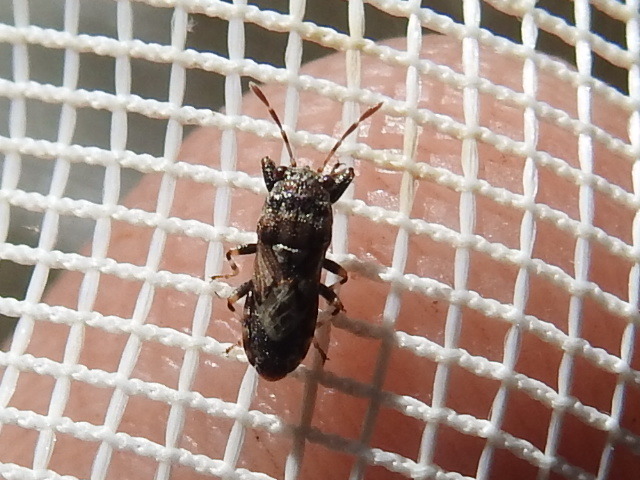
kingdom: Animalia
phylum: Arthropoda
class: Insecta
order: Hemiptera
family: Pachygronthidae
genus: Phlegyas
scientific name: Phlegyas abbreviatus
